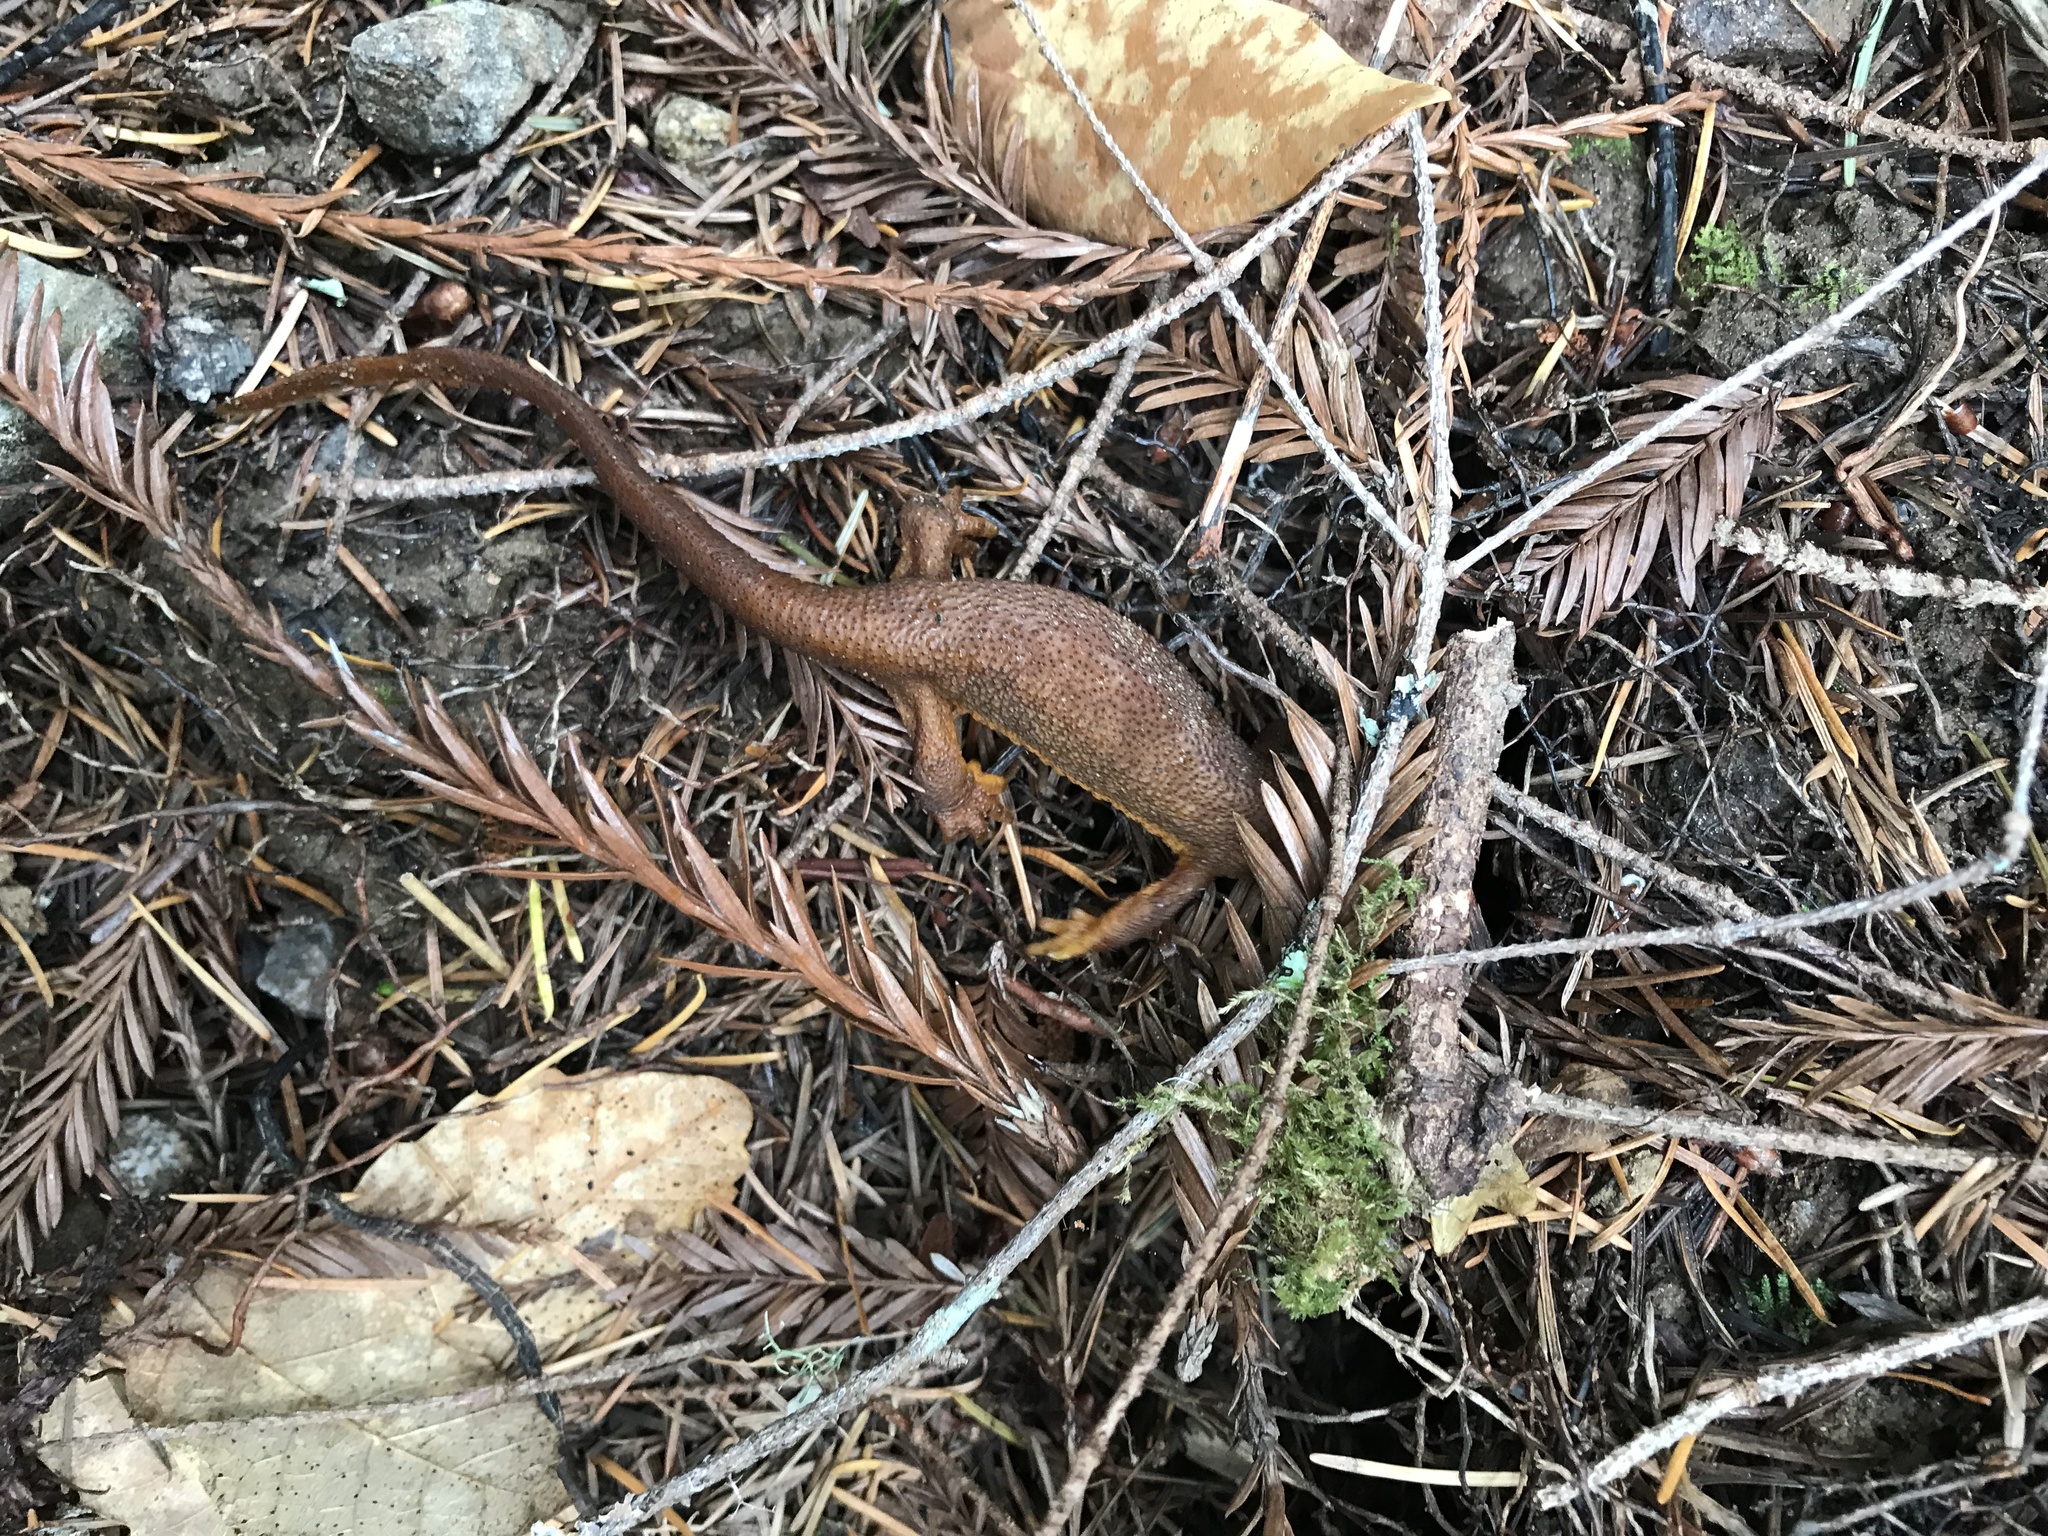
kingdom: Animalia
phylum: Chordata
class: Amphibia
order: Caudata
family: Salamandridae
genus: Taricha
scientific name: Taricha
